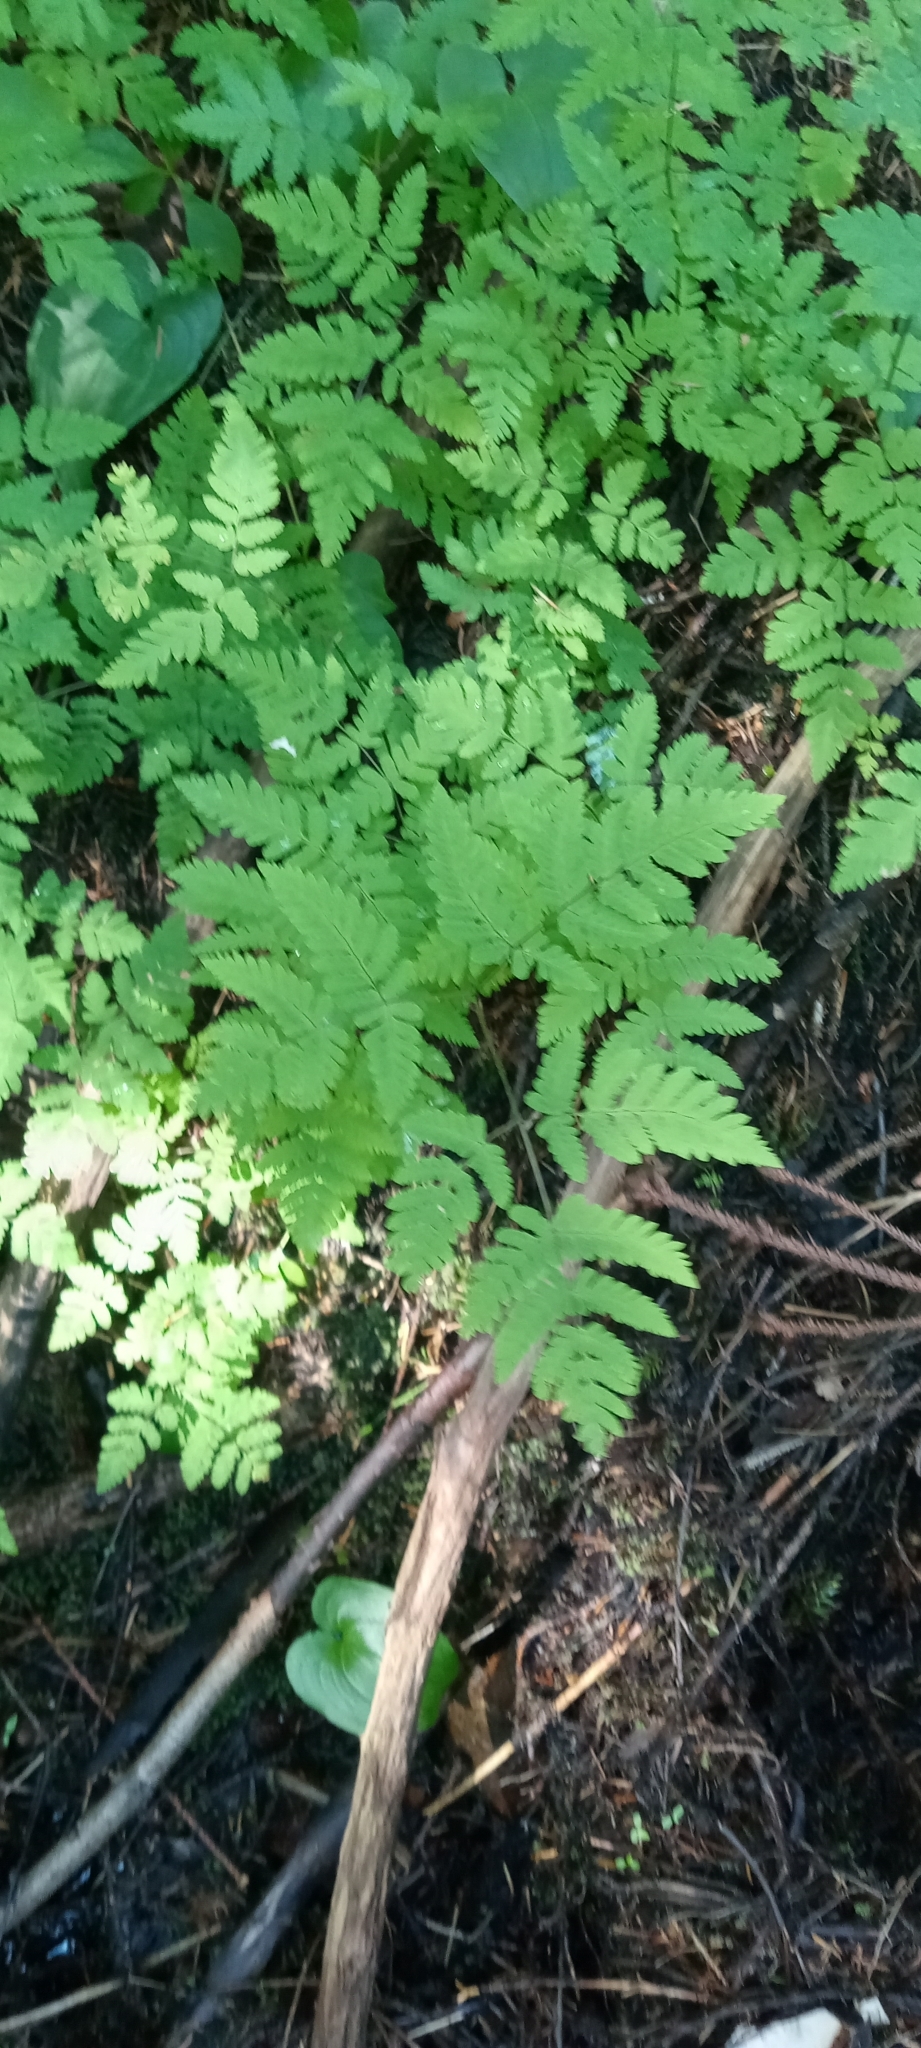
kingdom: Plantae
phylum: Tracheophyta
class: Polypodiopsida
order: Polypodiales
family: Cystopteridaceae
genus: Gymnocarpium
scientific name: Gymnocarpium dryopteris
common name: Oak fern
